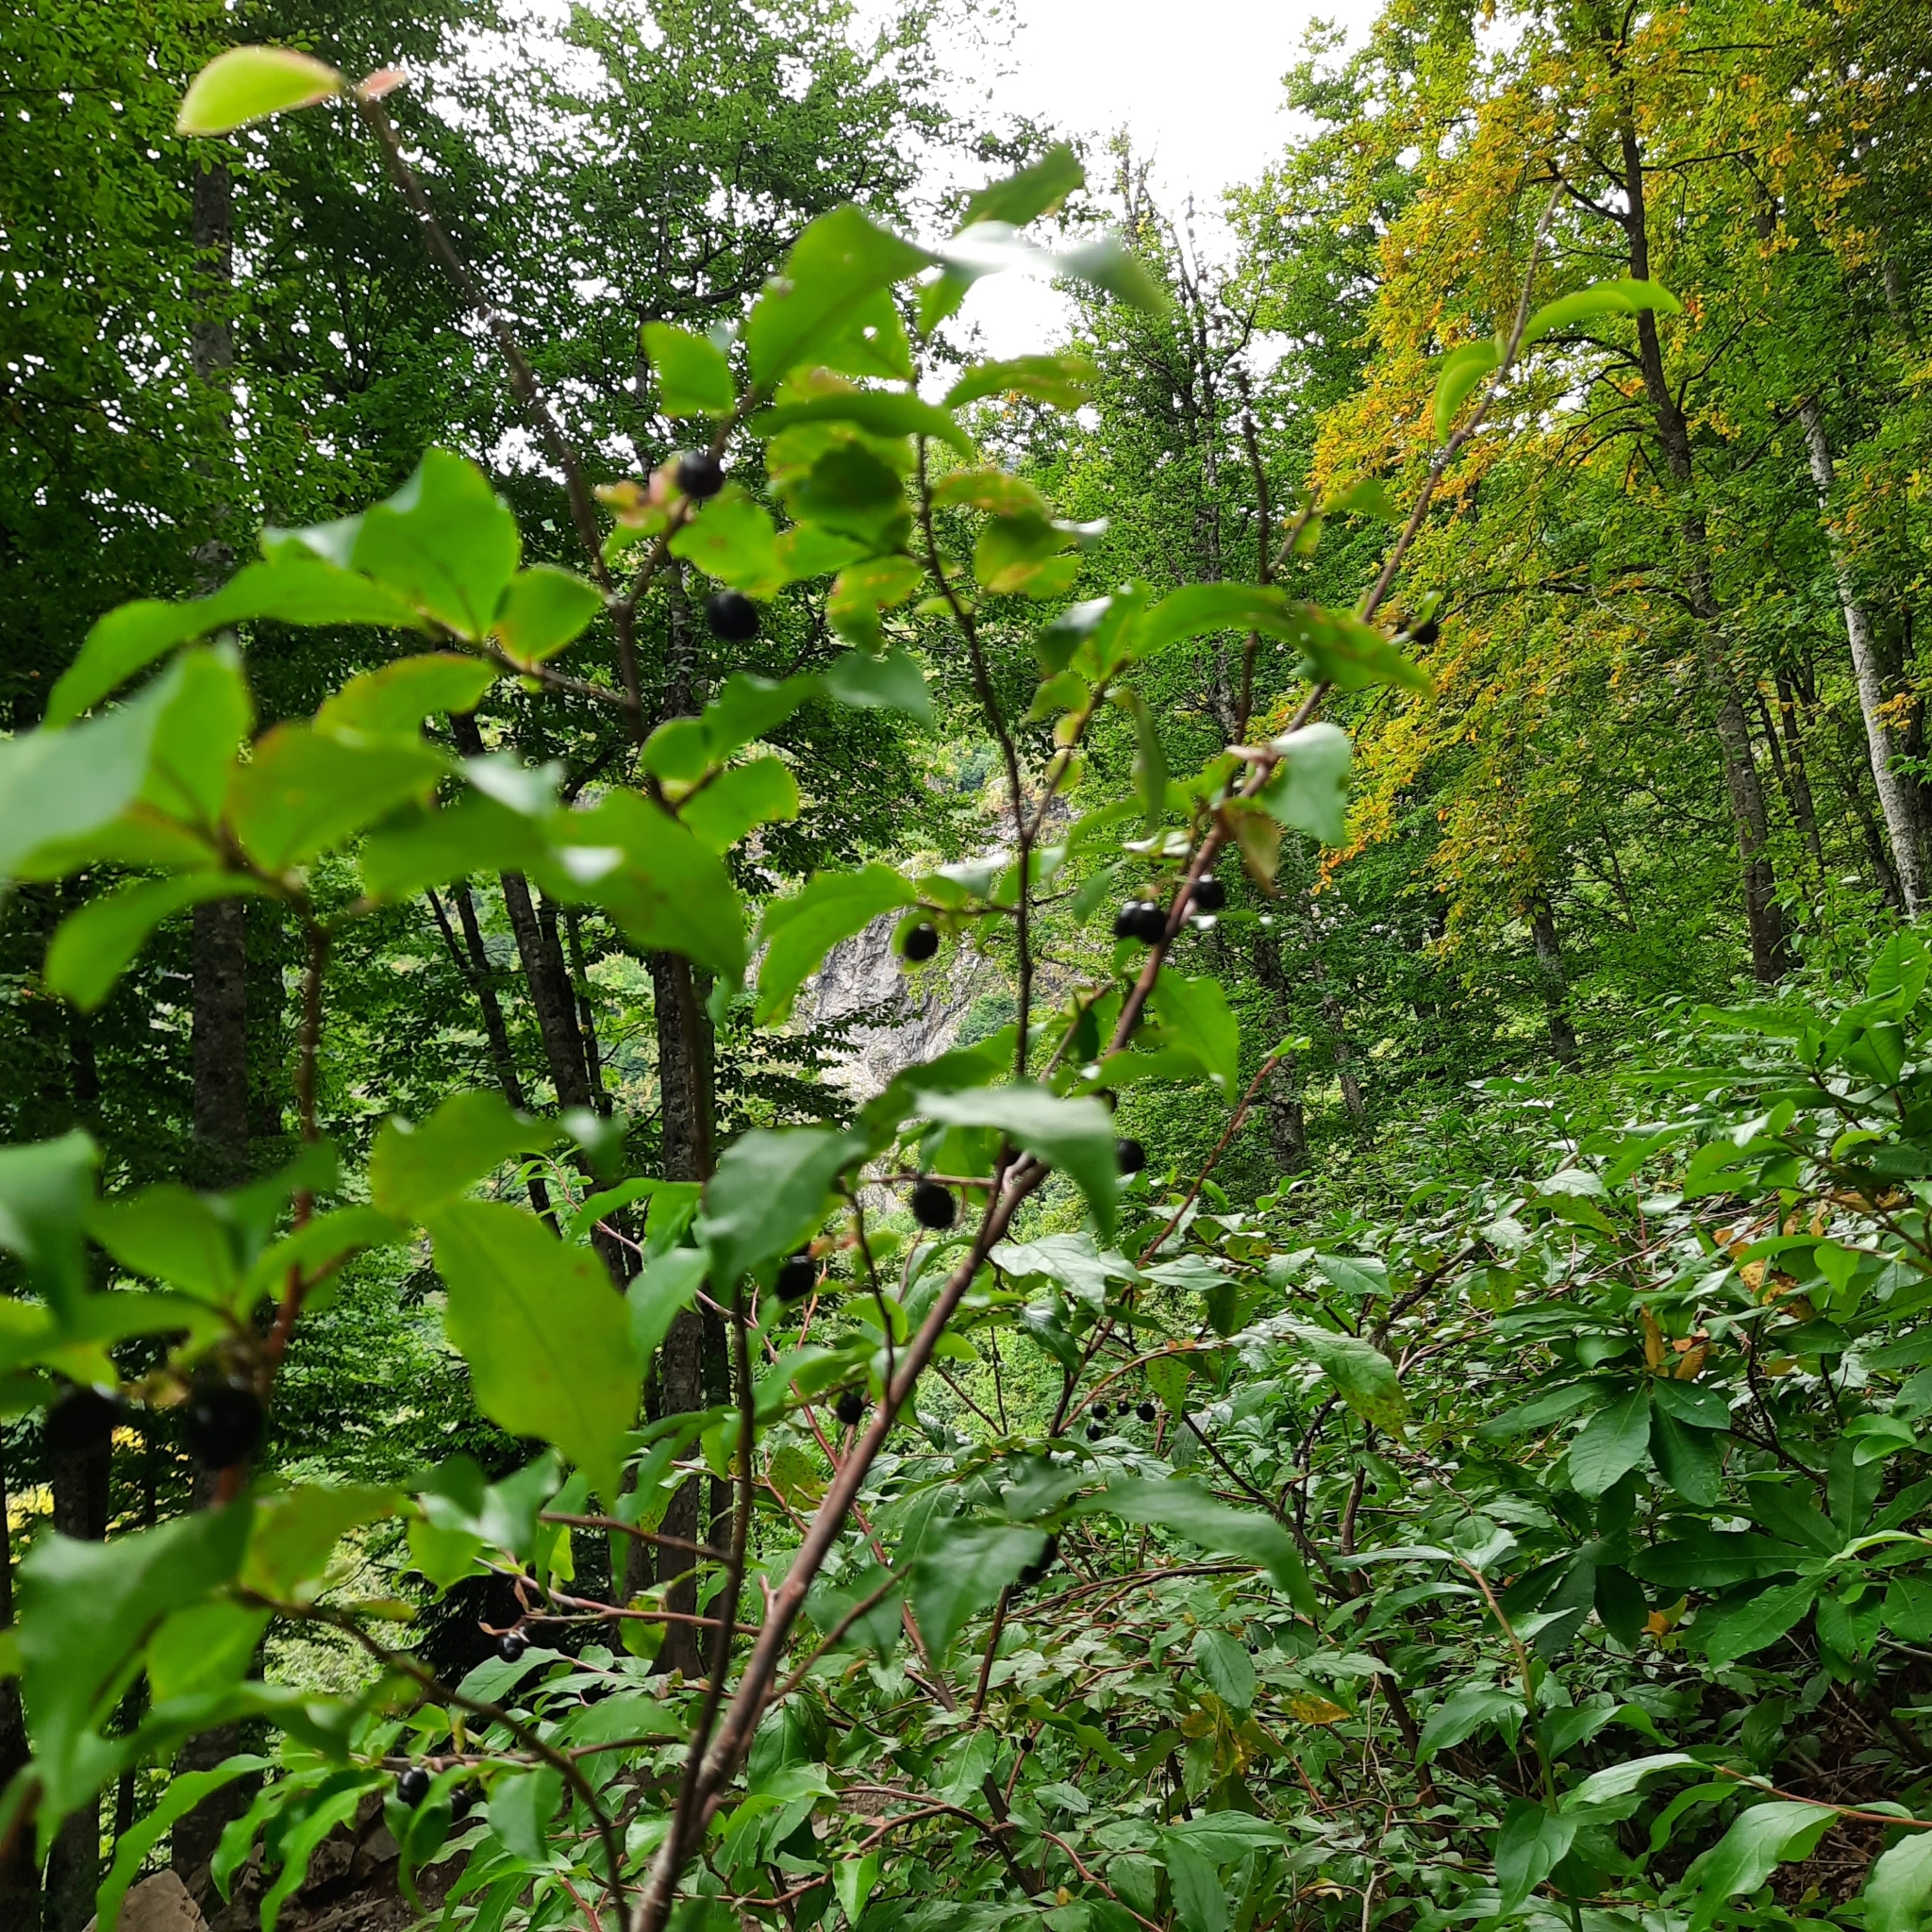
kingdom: Plantae
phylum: Tracheophyta
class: Magnoliopsida
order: Ericales
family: Ericaceae
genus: Vaccinium
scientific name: Vaccinium arctostaphylos
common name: Caucasian whortleberry
